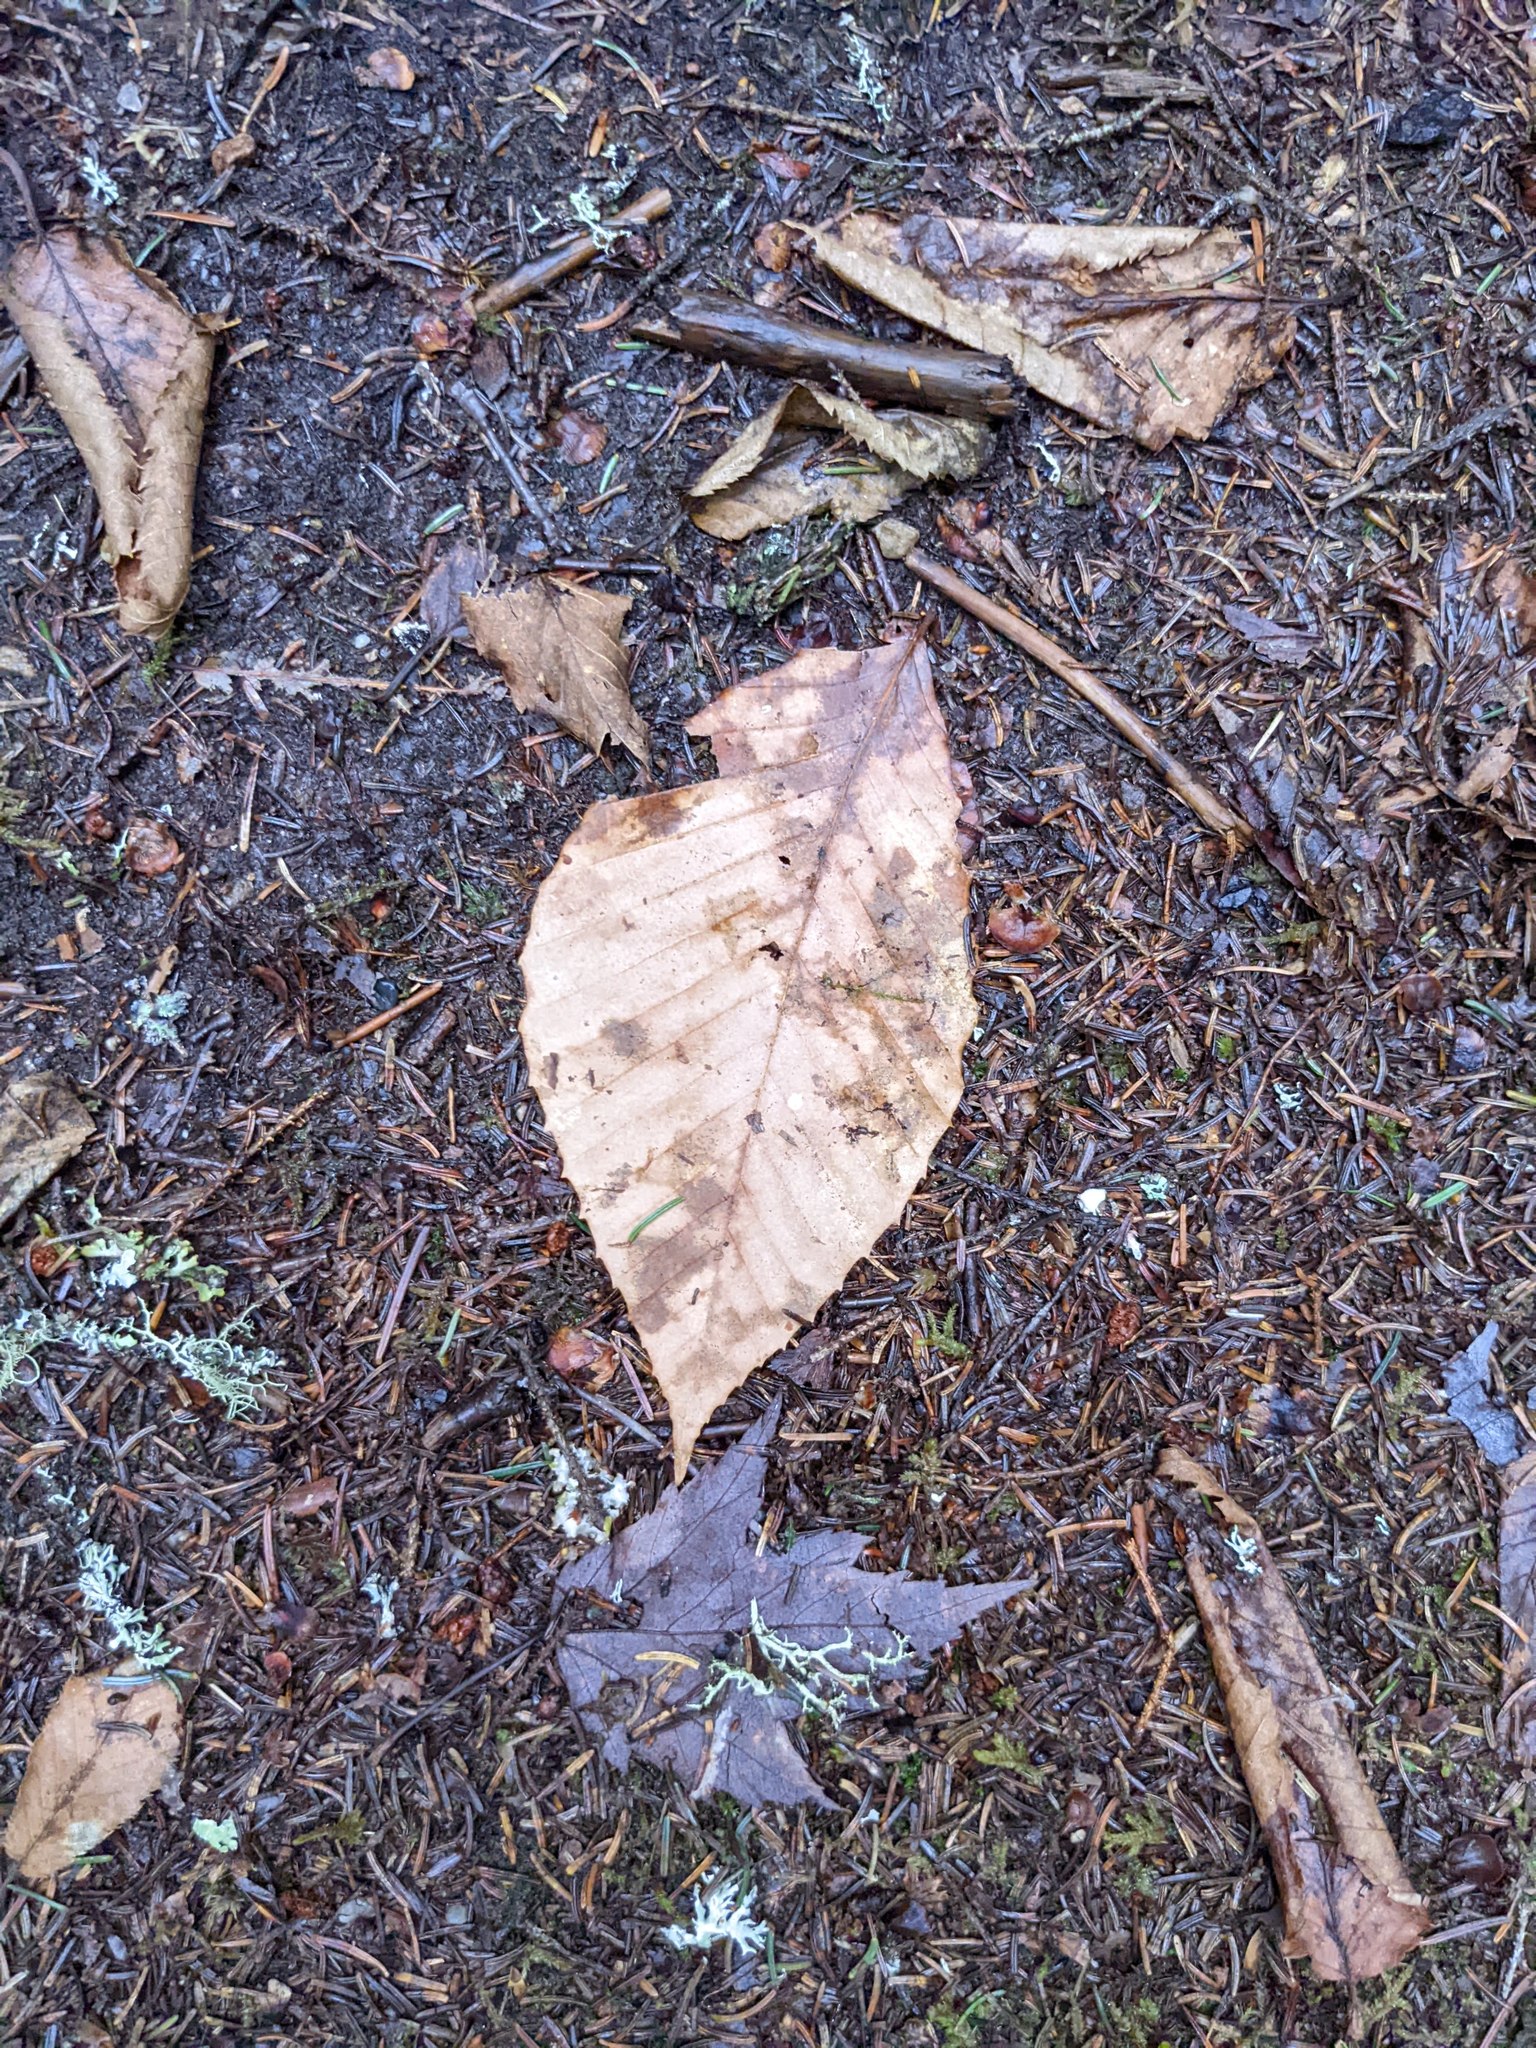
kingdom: Plantae
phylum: Tracheophyta
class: Magnoliopsida
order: Fagales
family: Fagaceae
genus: Fagus
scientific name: Fagus grandifolia
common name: American beech
